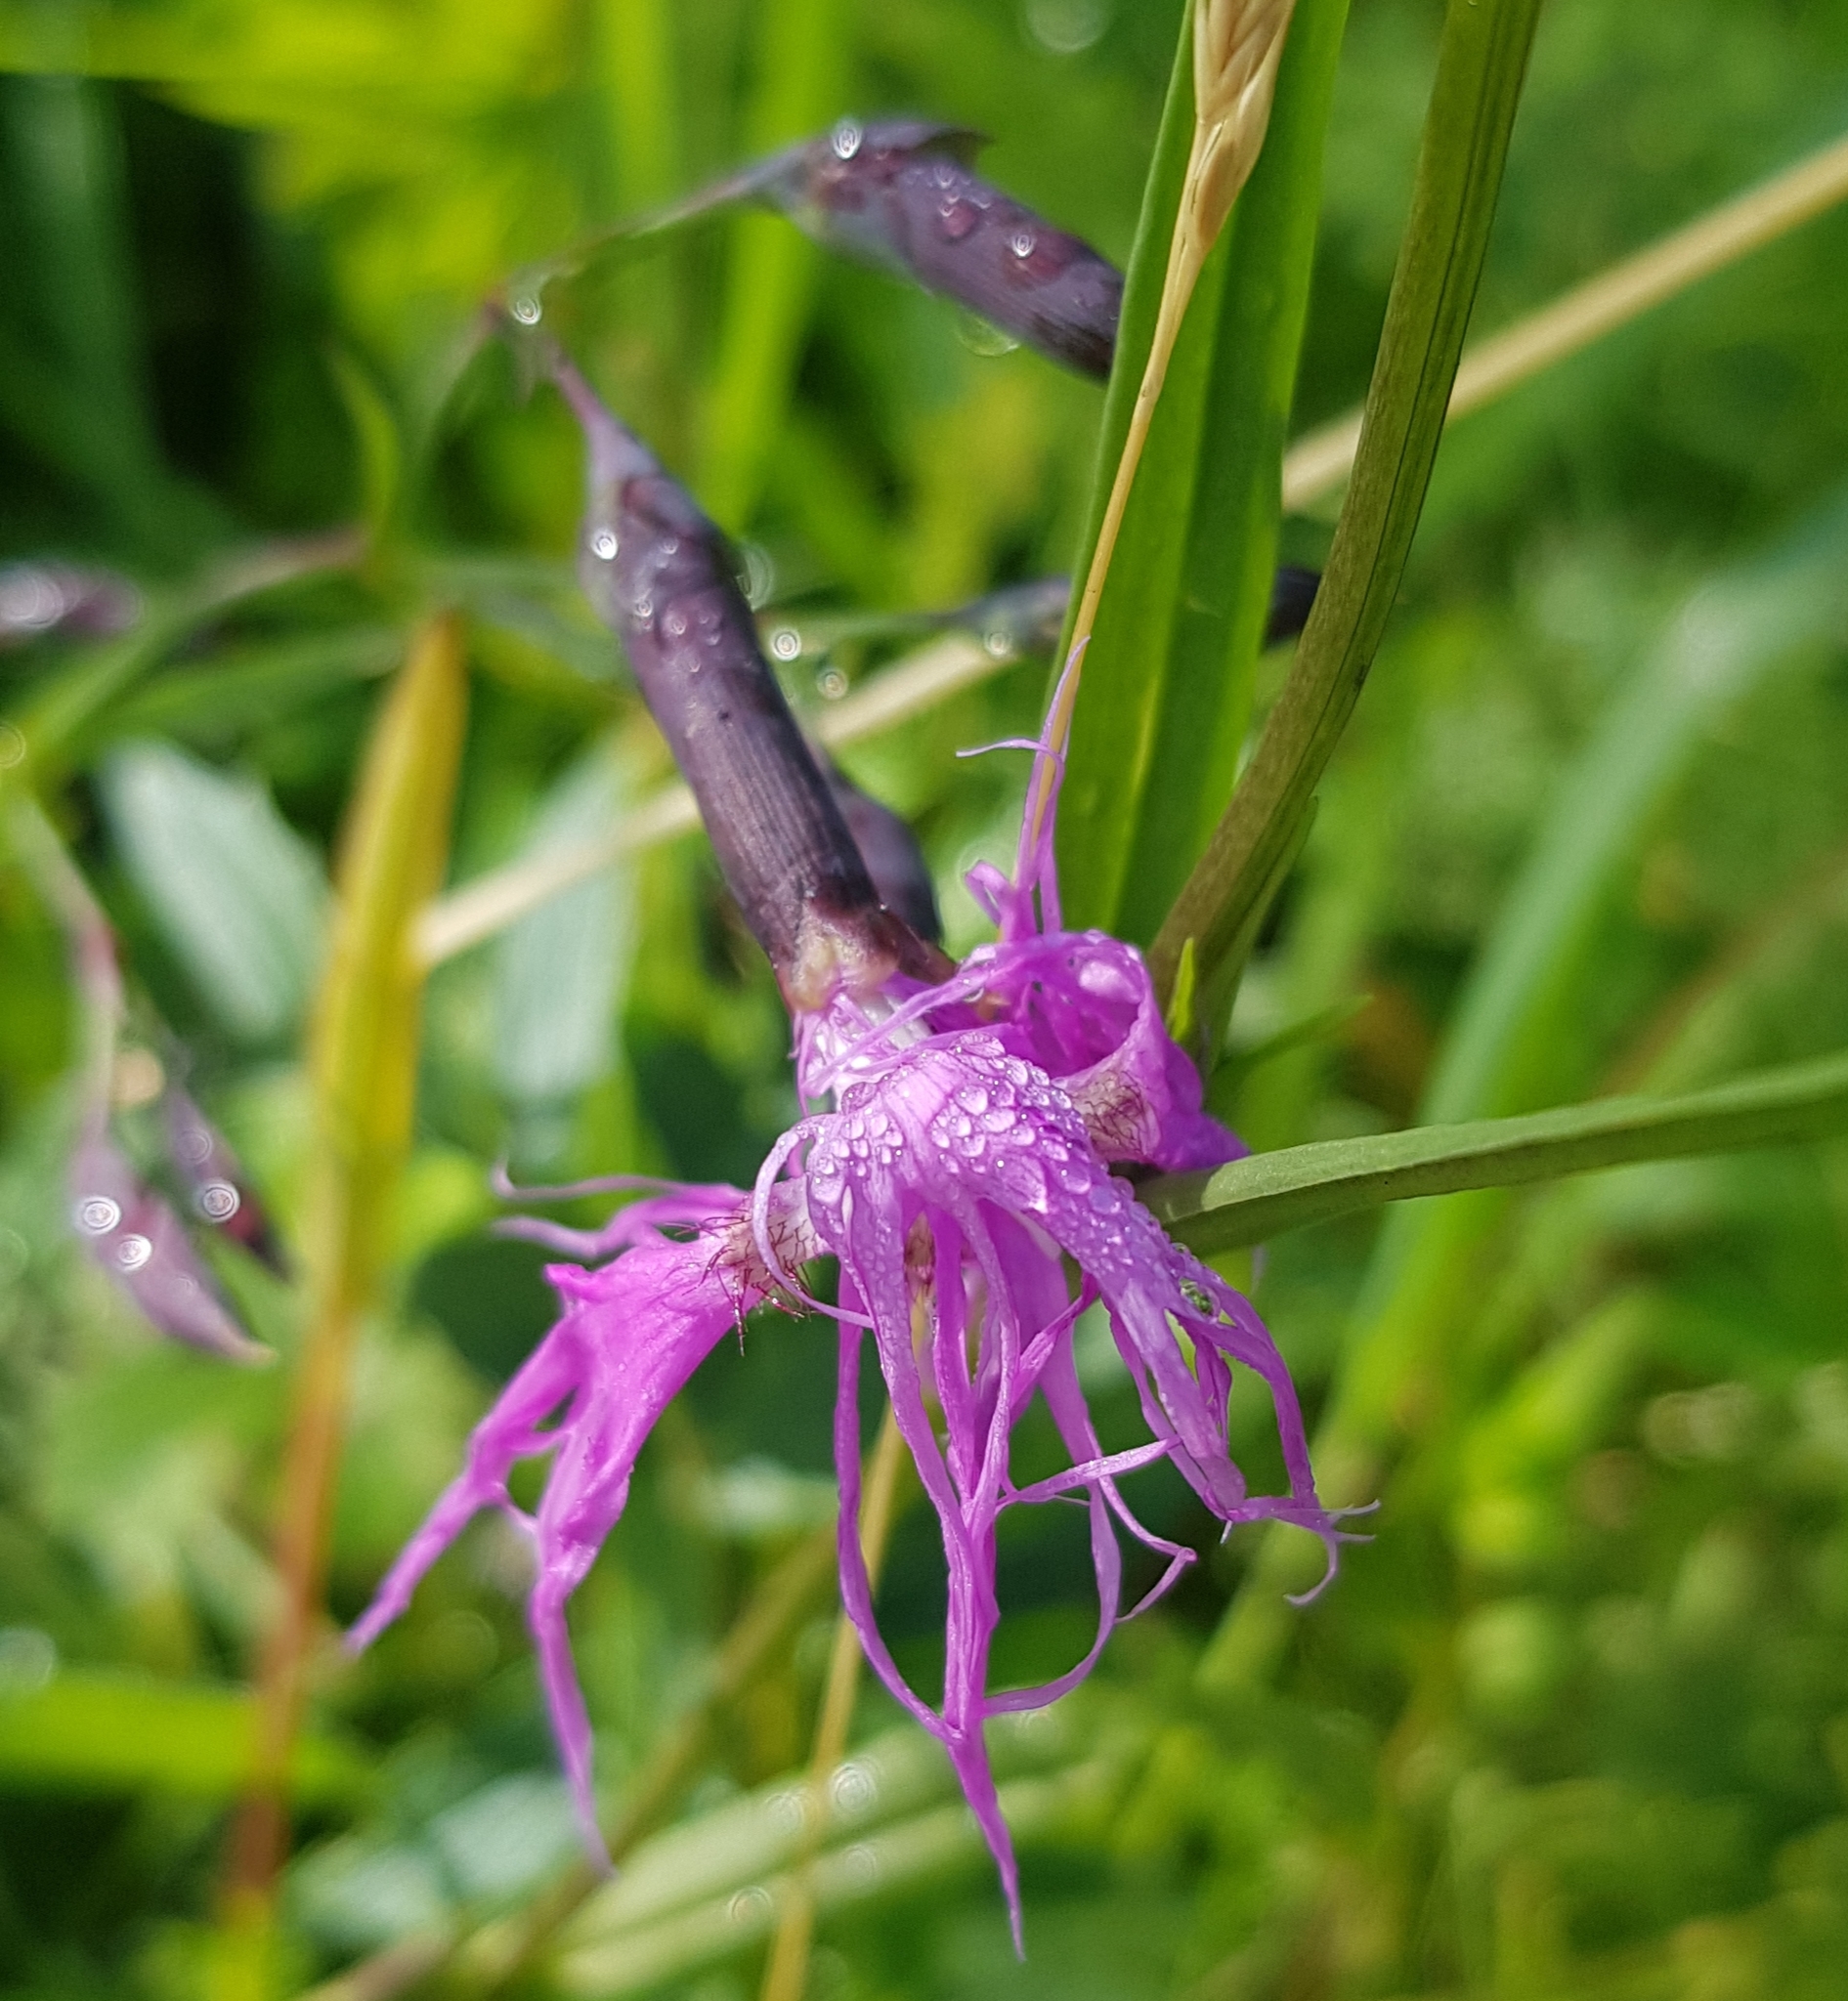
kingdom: Plantae
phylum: Tracheophyta
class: Magnoliopsida
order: Caryophyllales
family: Caryophyllaceae
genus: Dianthus
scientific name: Dianthus superbus
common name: Fringed pink
